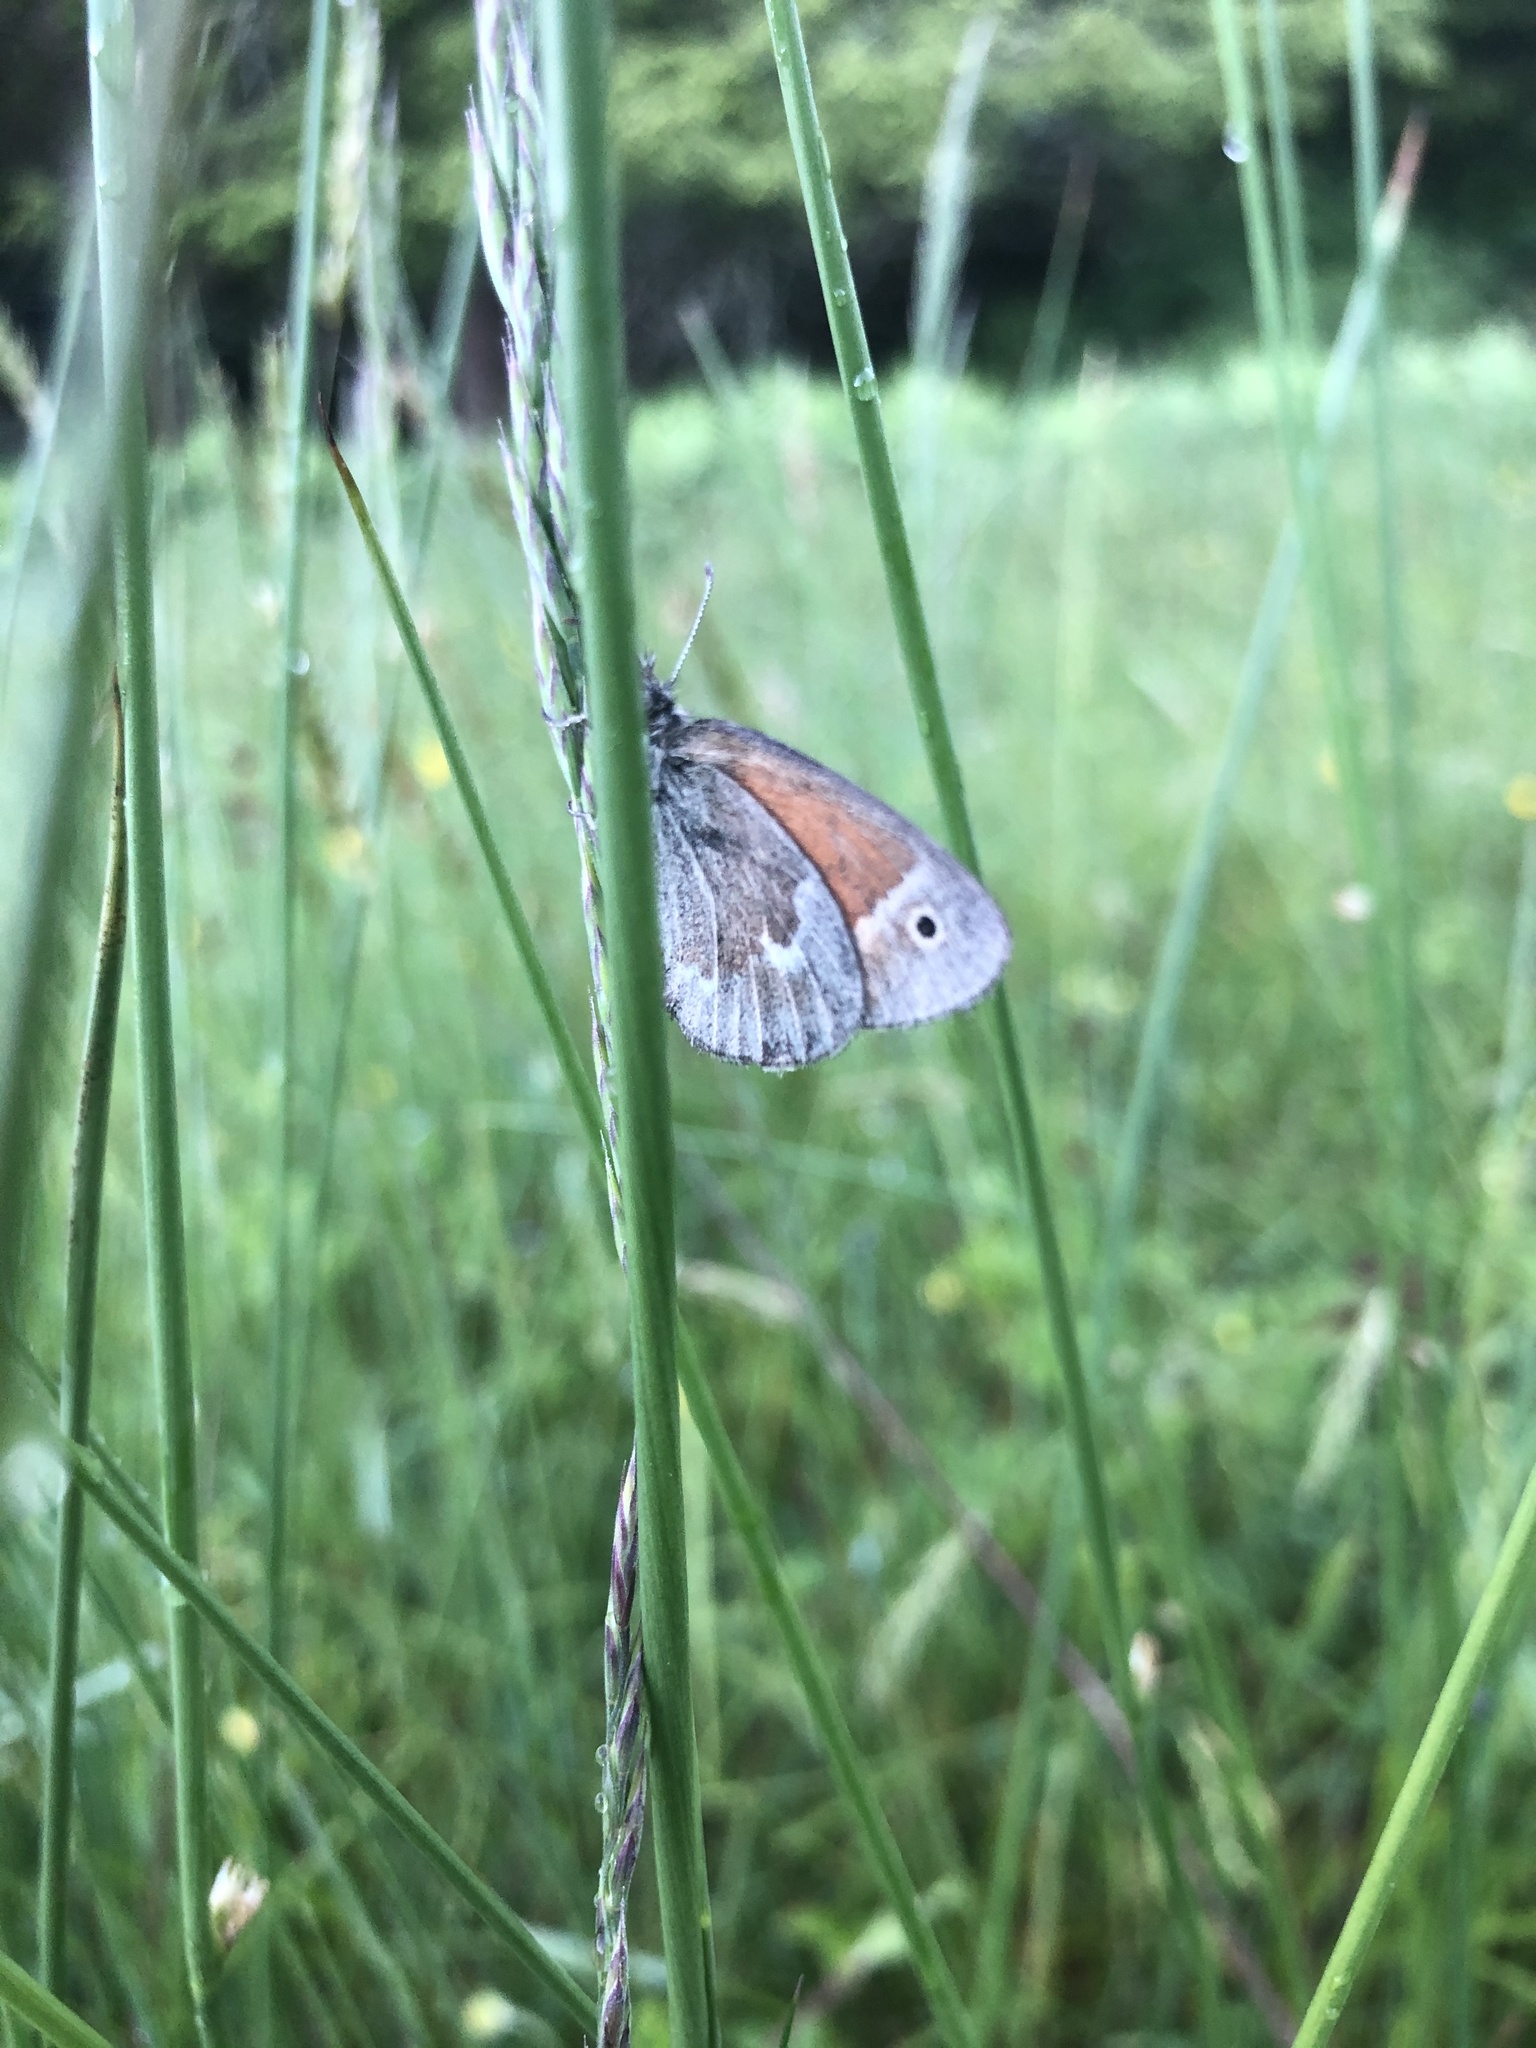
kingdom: Animalia
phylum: Arthropoda
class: Insecta
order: Lepidoptera
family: Nymphalidae
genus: Coenonympha
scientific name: Coenonympha california
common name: Common ringlet
